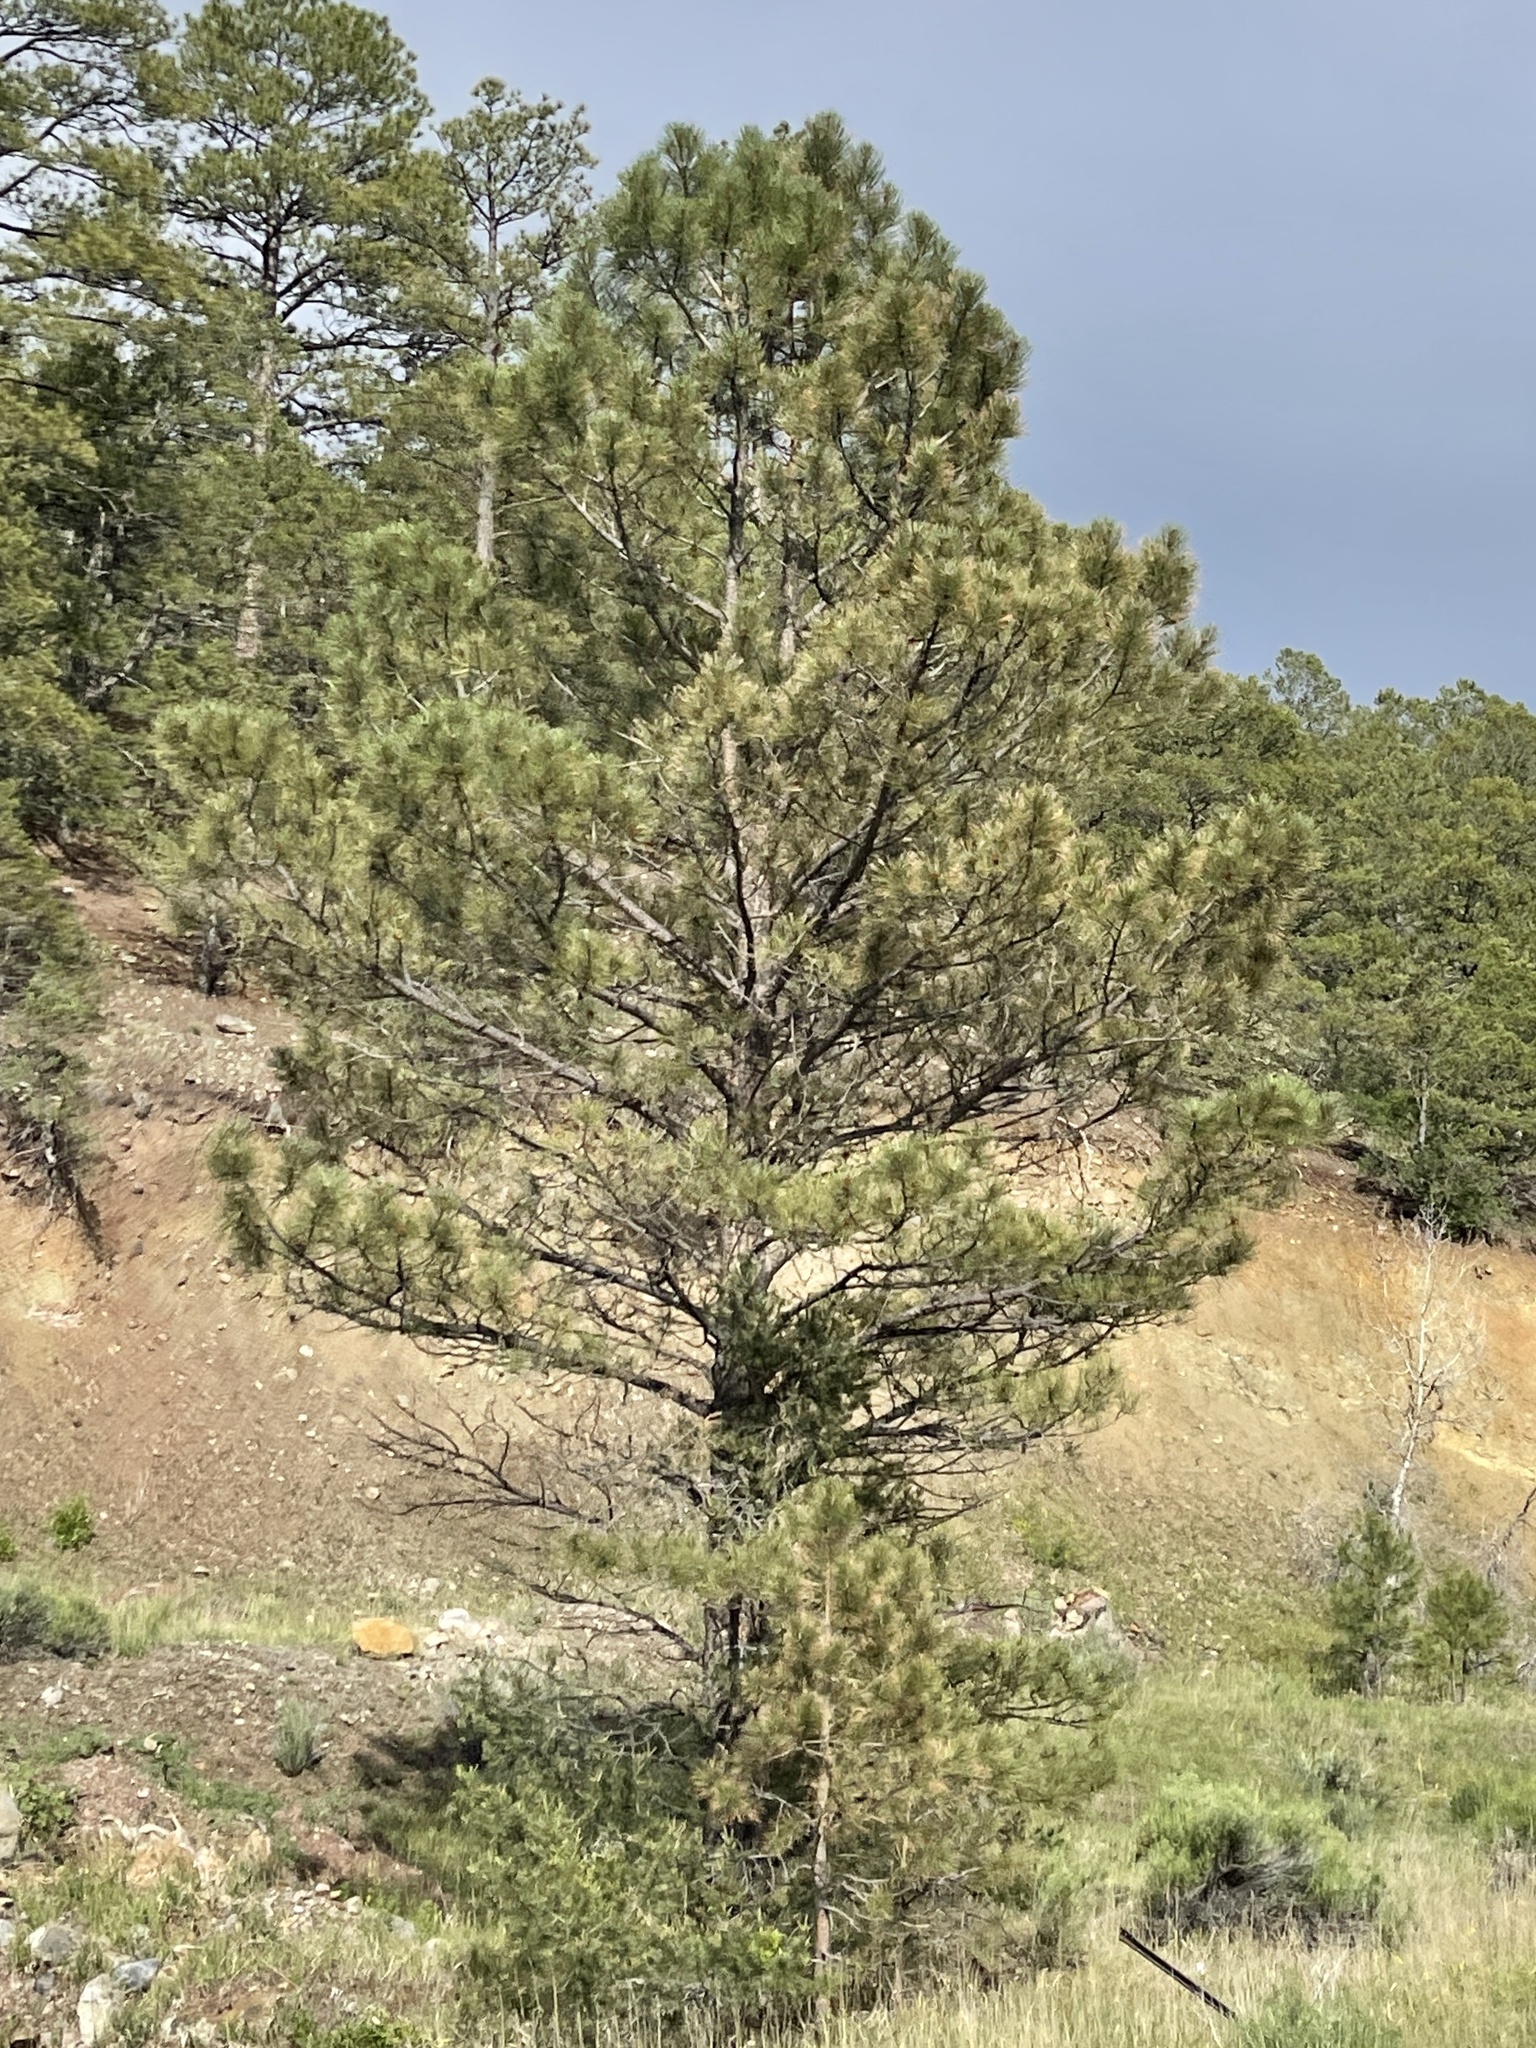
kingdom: Plantae
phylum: Tracheophyta
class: Pinopsida
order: Pinales
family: Pinaceae
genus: Pinus
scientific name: Pinus ponderosa
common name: Western yellow-pine
